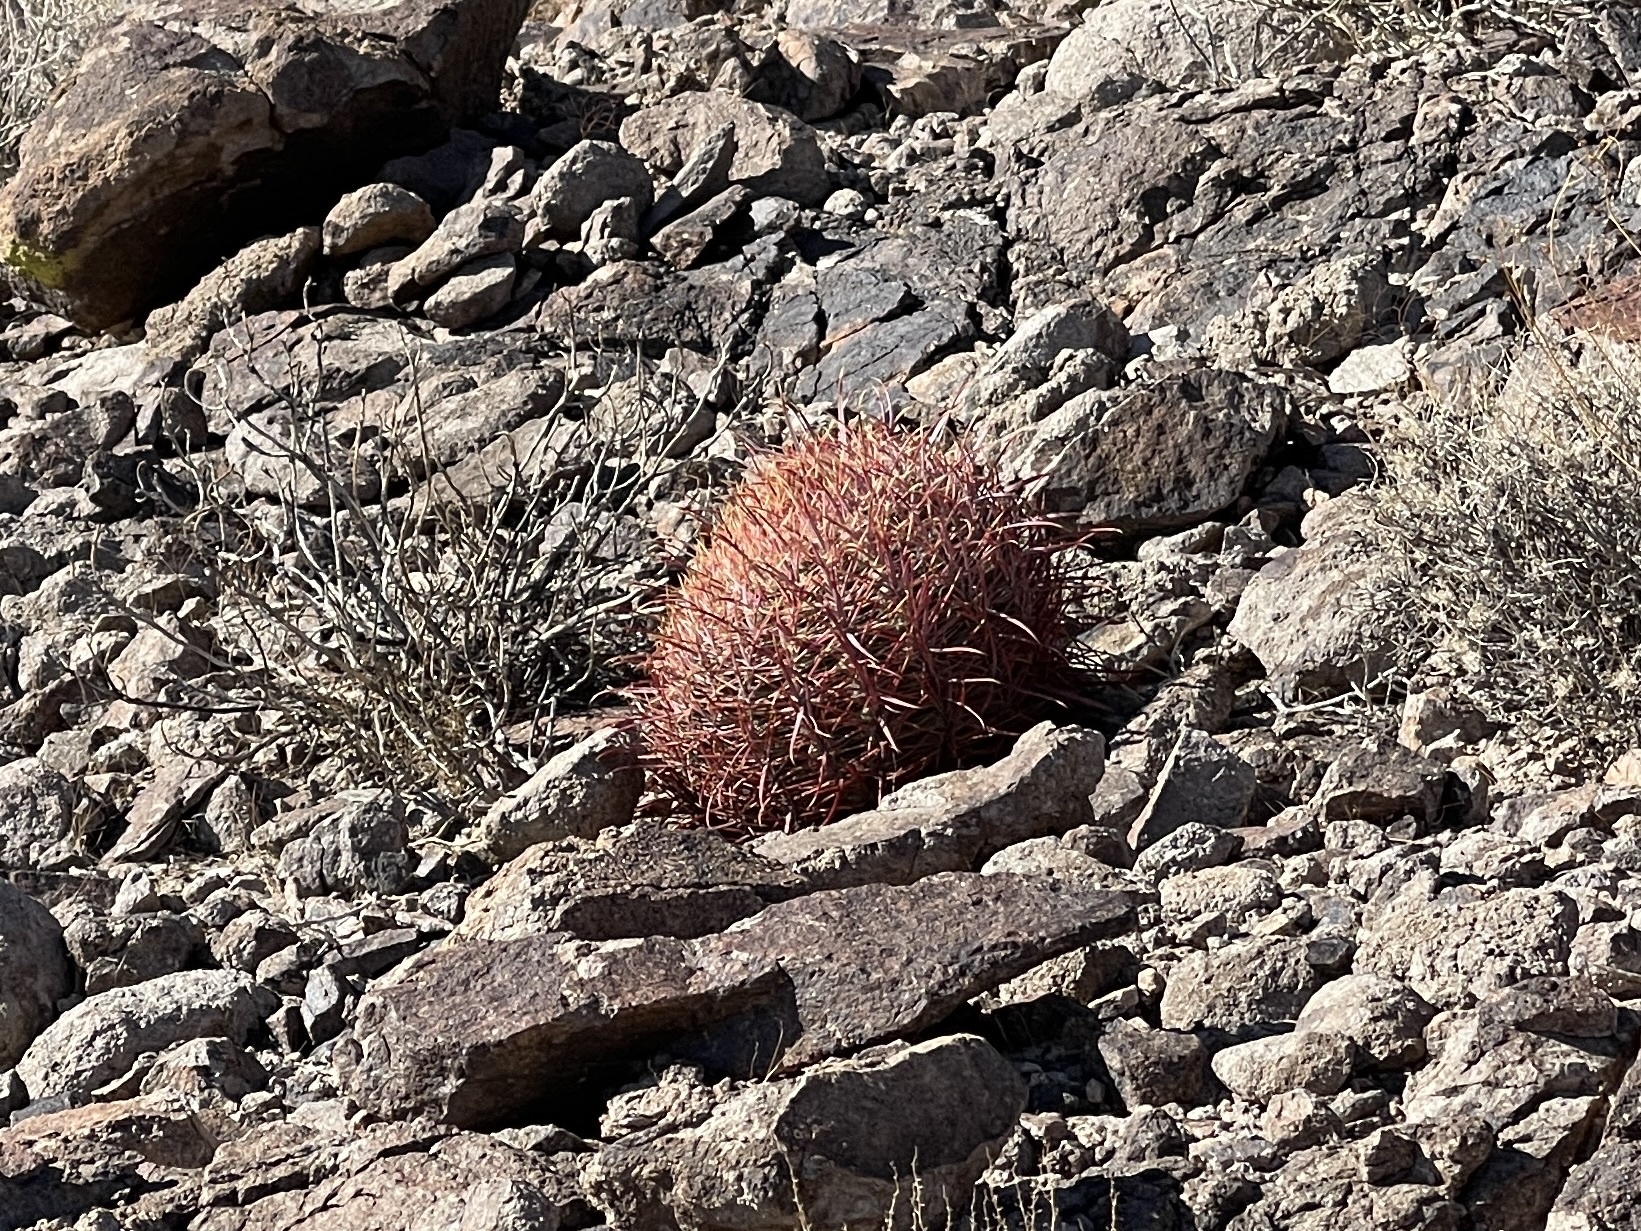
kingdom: Plantae
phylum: Tracheophyta
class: Magnoliopsida
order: Caryophyllales
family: Cactaceae
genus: Ferocactus
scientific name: Ferocactus cylindraceus
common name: California barrel cactus
